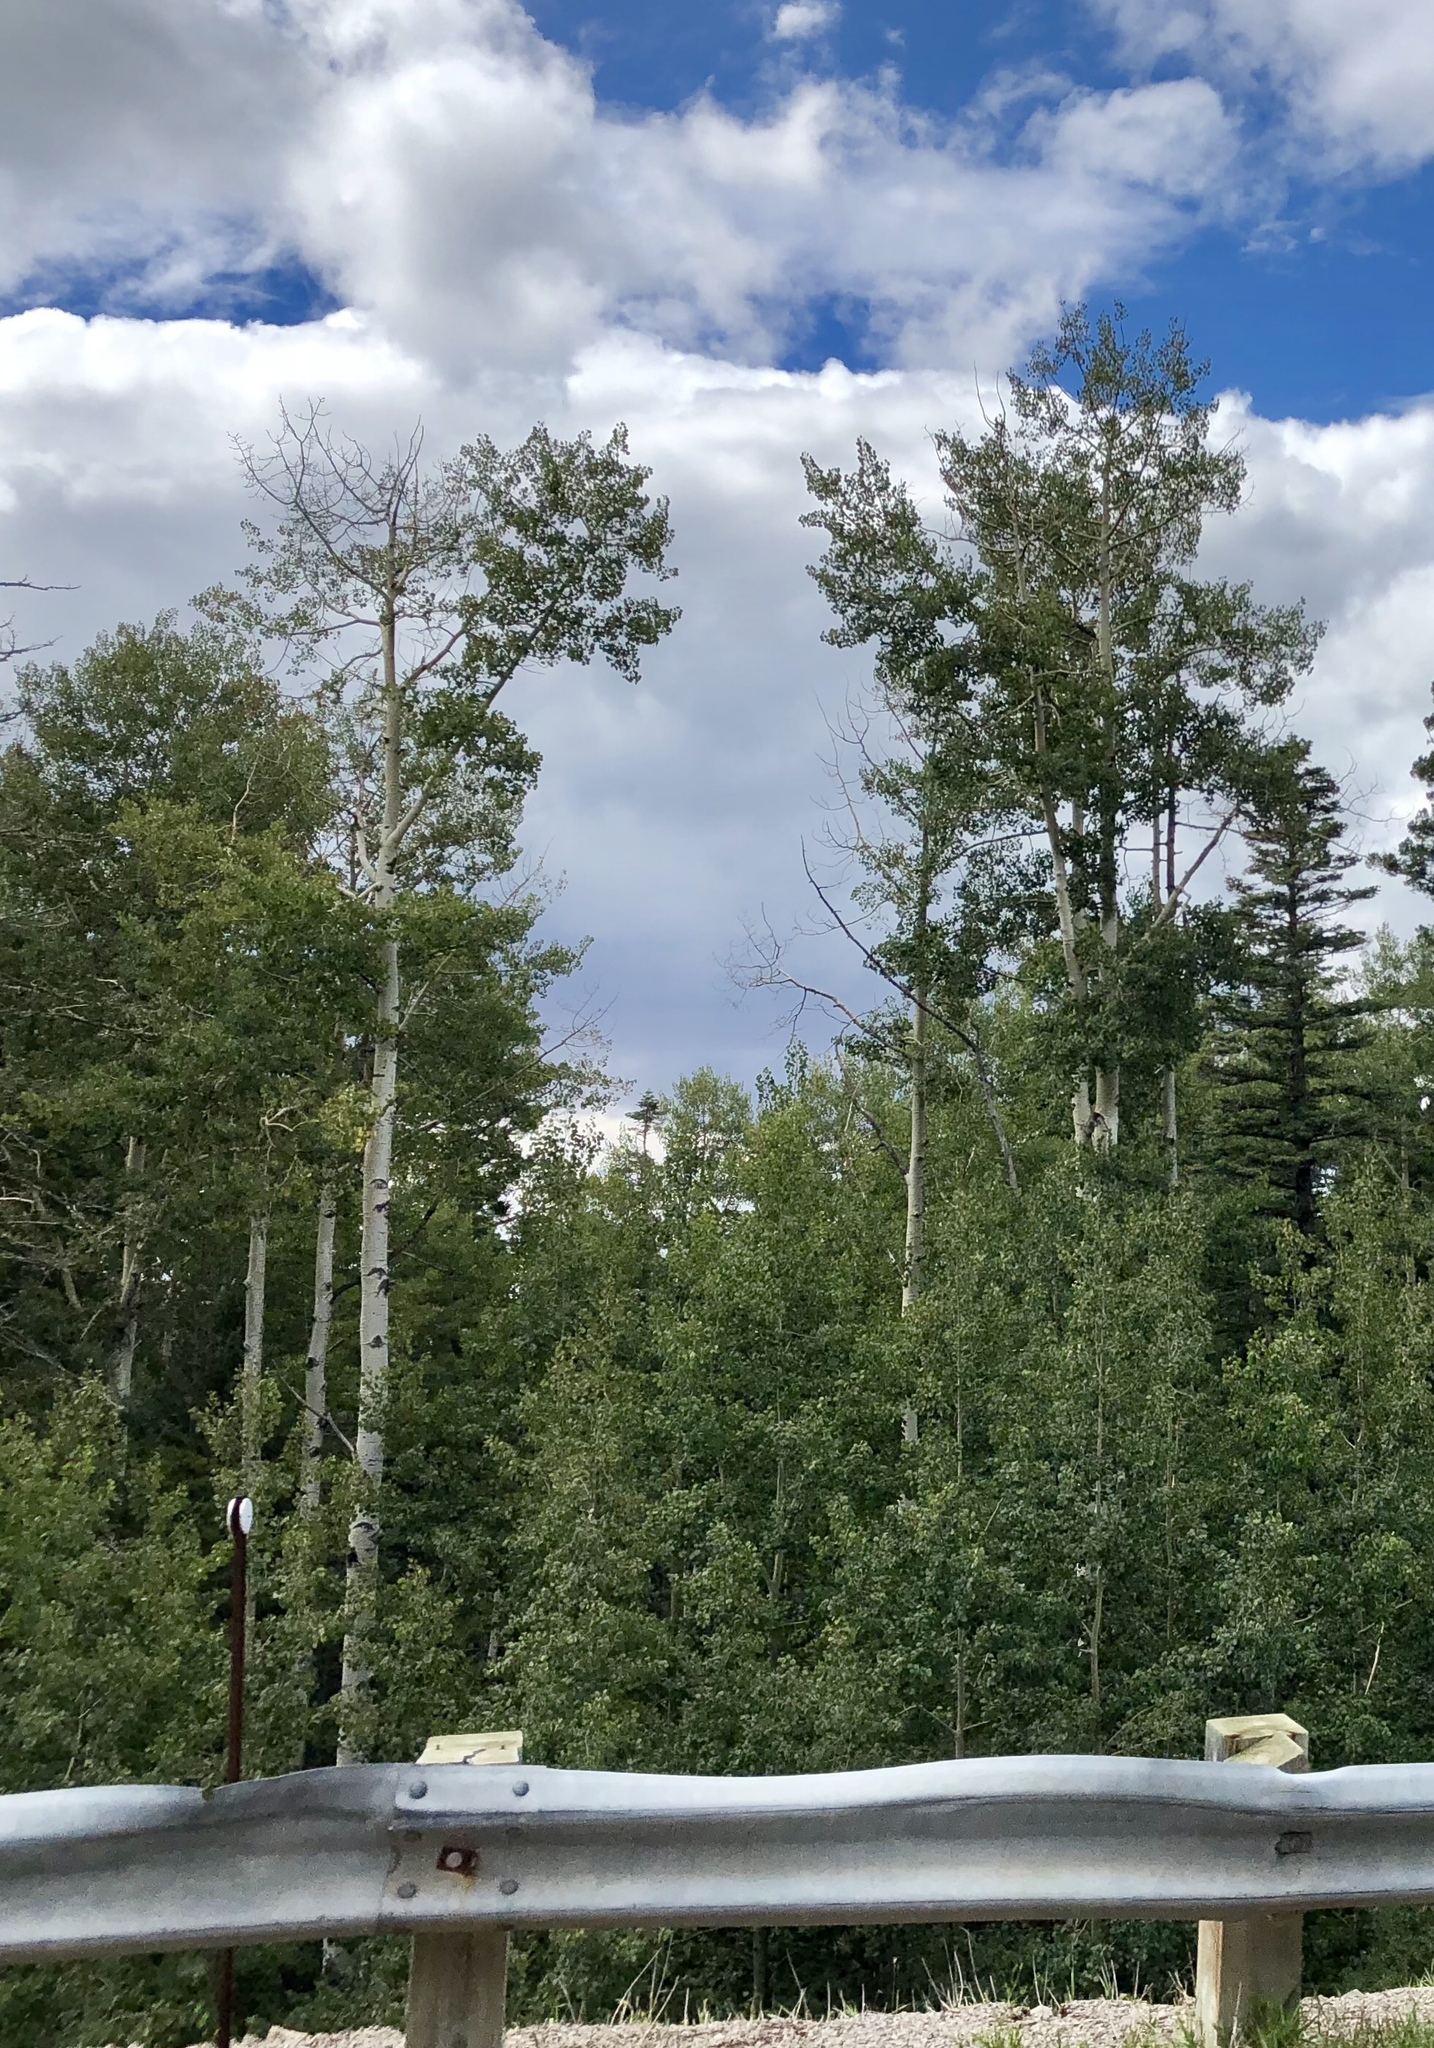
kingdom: Plantae
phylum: Tracheophyta
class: Magnoliopsida
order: Malpighiales
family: Salicaceae
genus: Populus
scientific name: Populus tremuloides
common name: Quaking aspen
